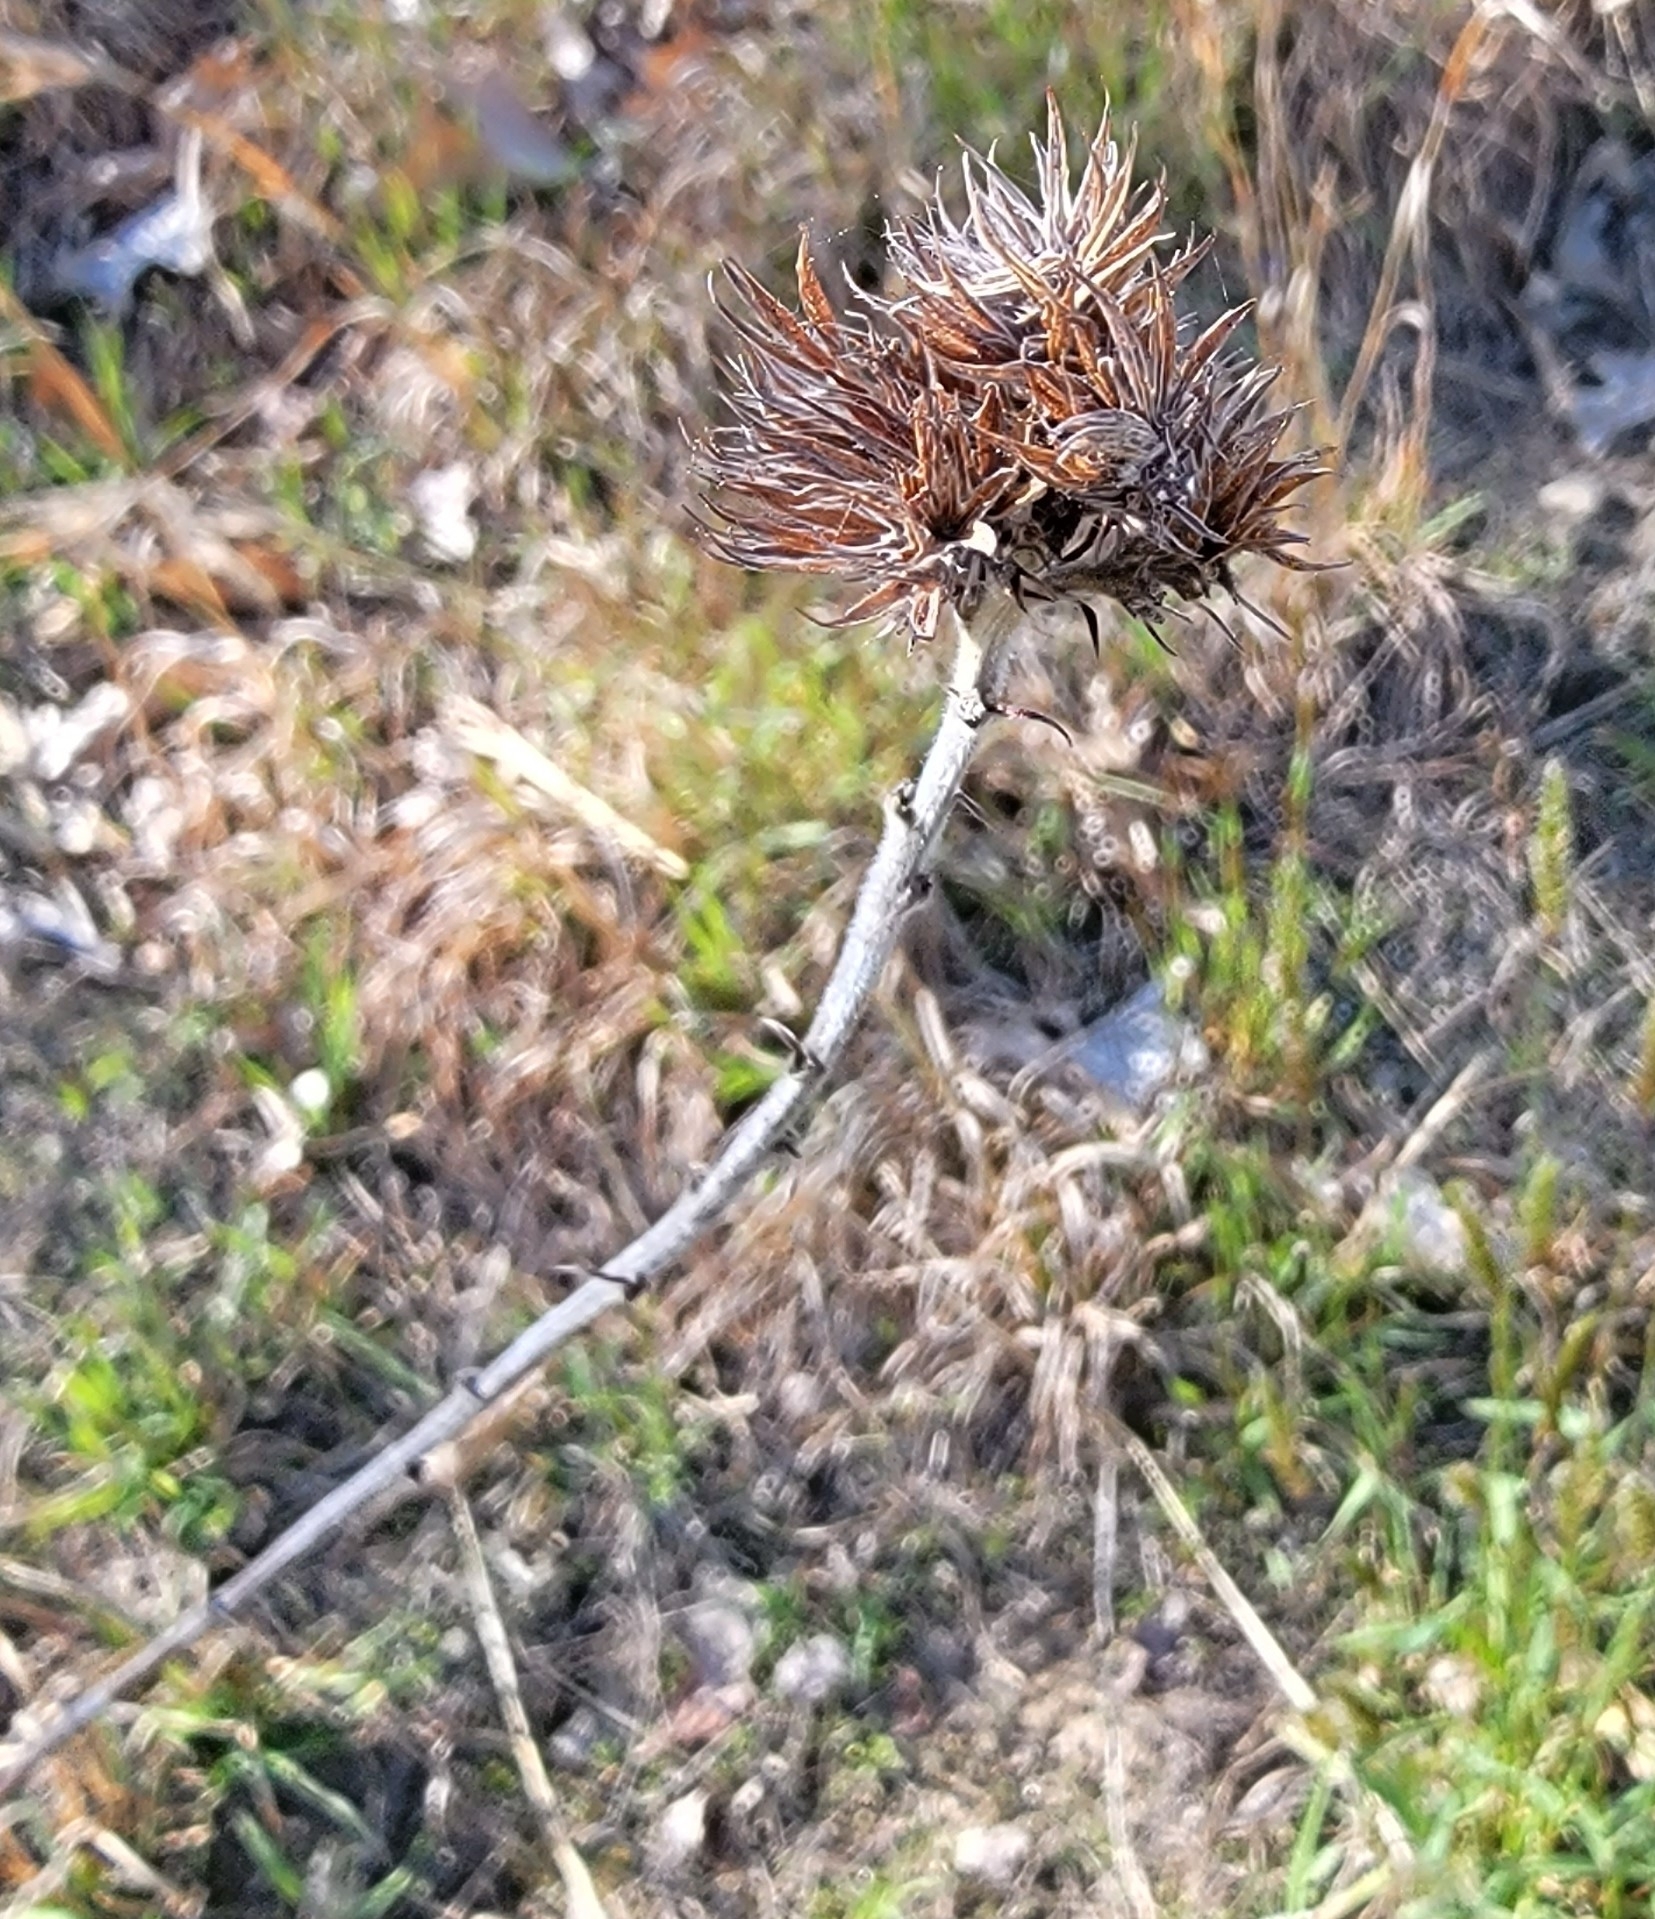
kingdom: Plantae
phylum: Tracheophyta
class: Magnoliopsida
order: Fabales
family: Fabaceae
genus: Lespedeza
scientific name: Lespedeza capitata
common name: Dusty clover
